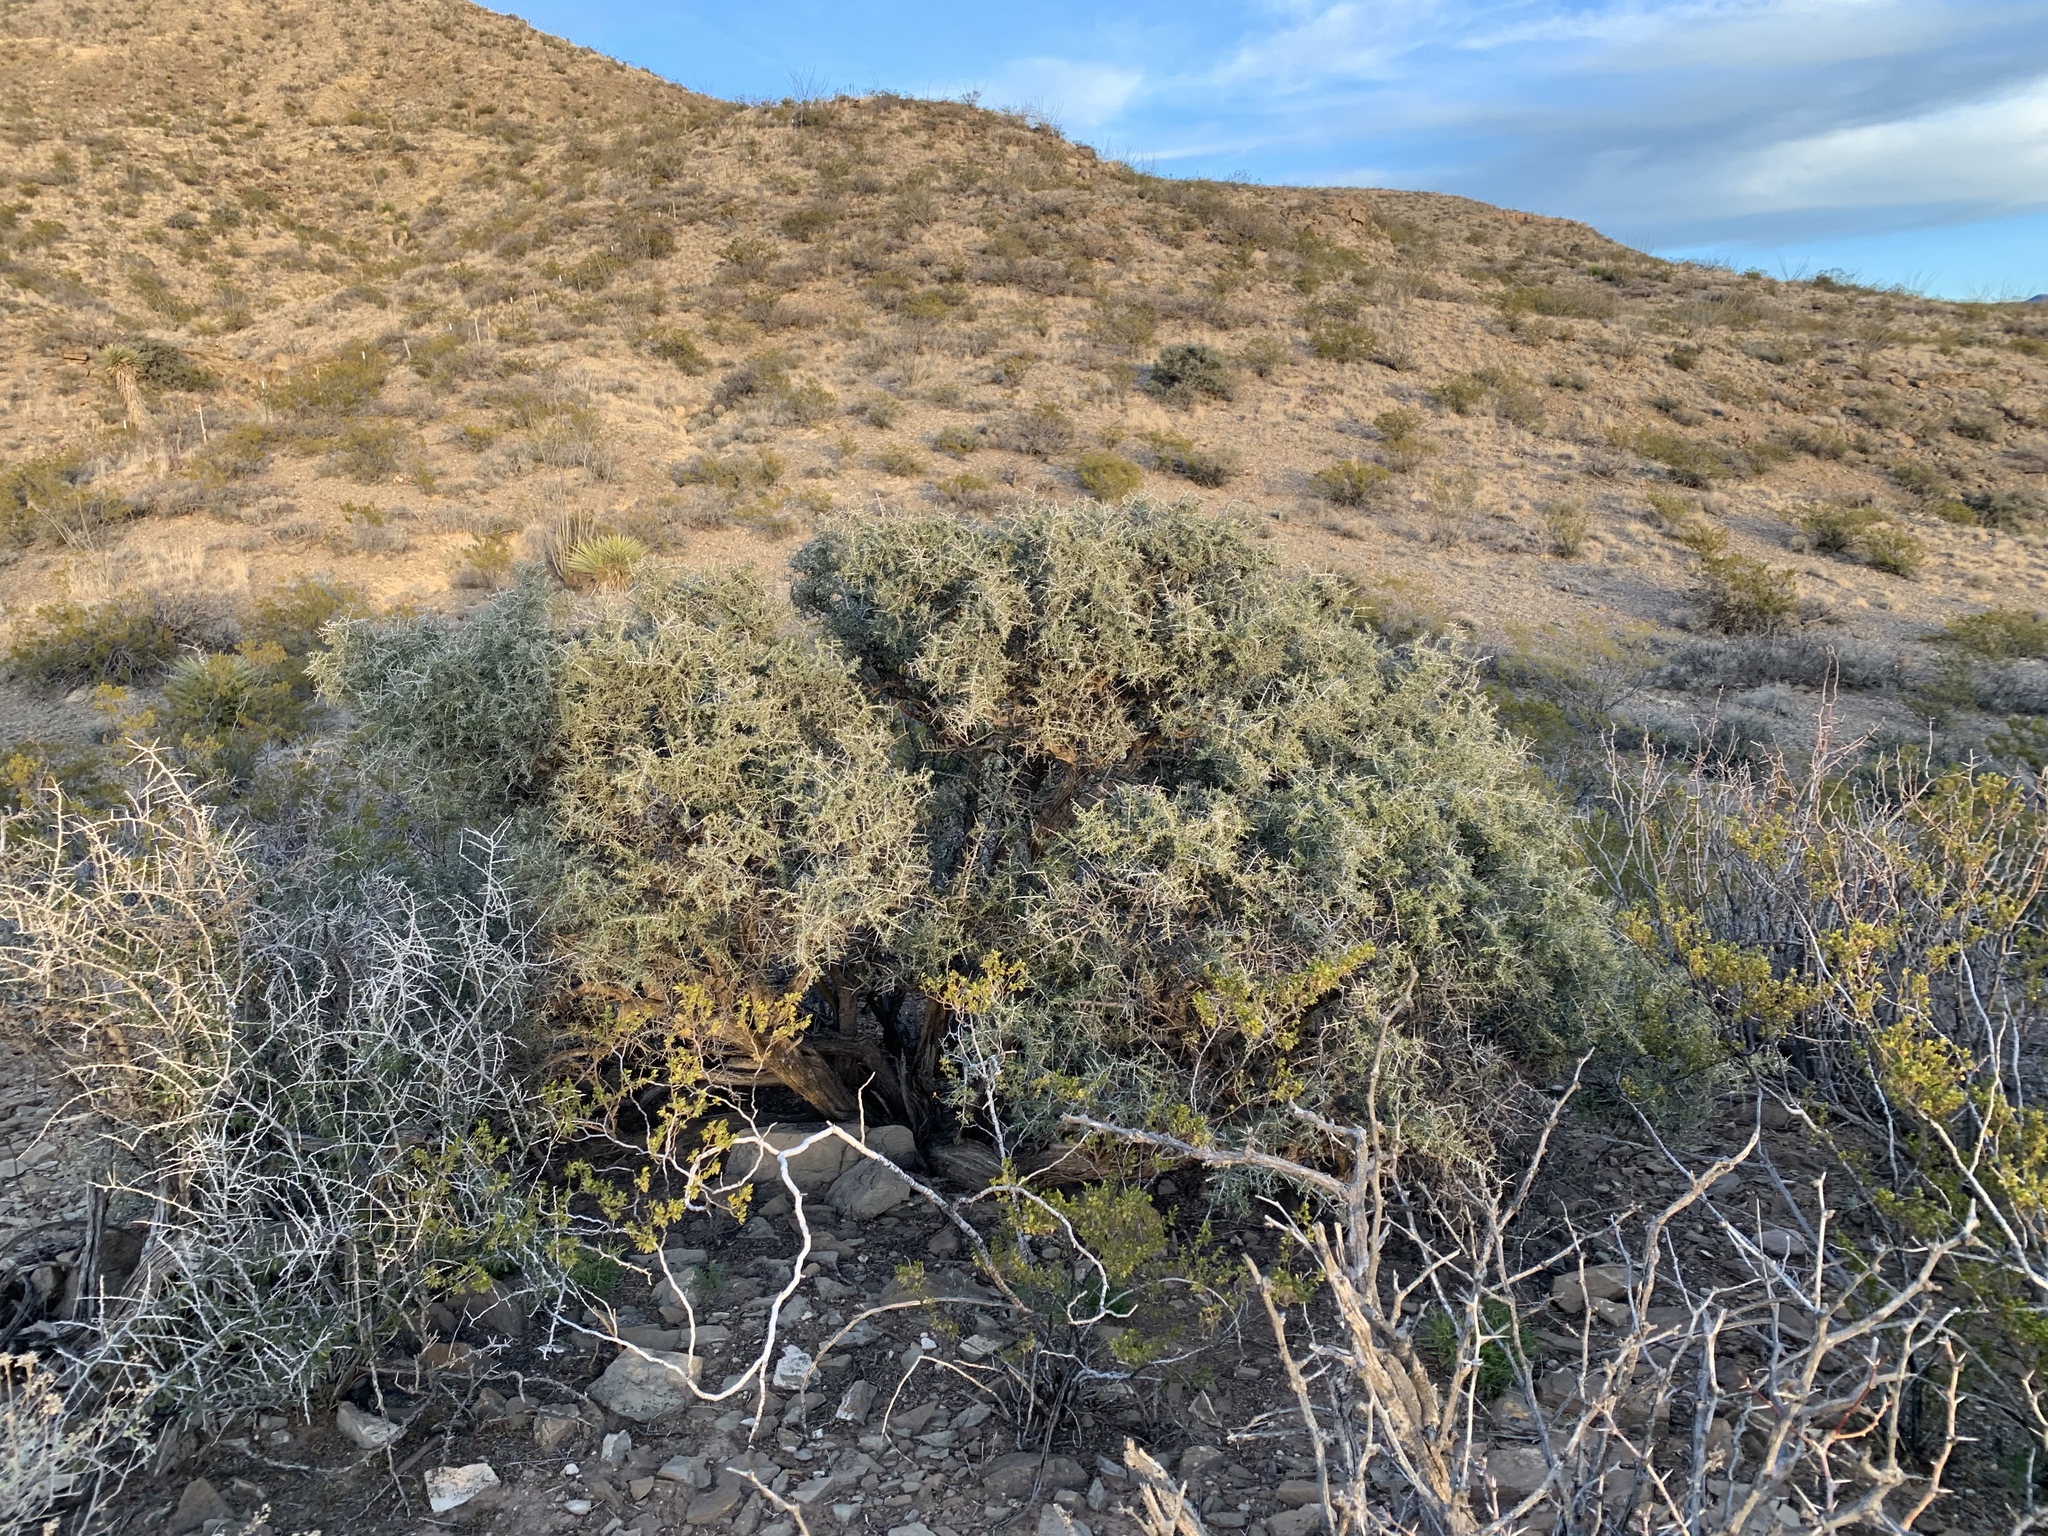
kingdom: Plantae
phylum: Tracheophyta
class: Magnoliopsida
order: Rosales
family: Rhamnaceae
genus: Condalia
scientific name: Condalia warnockii
